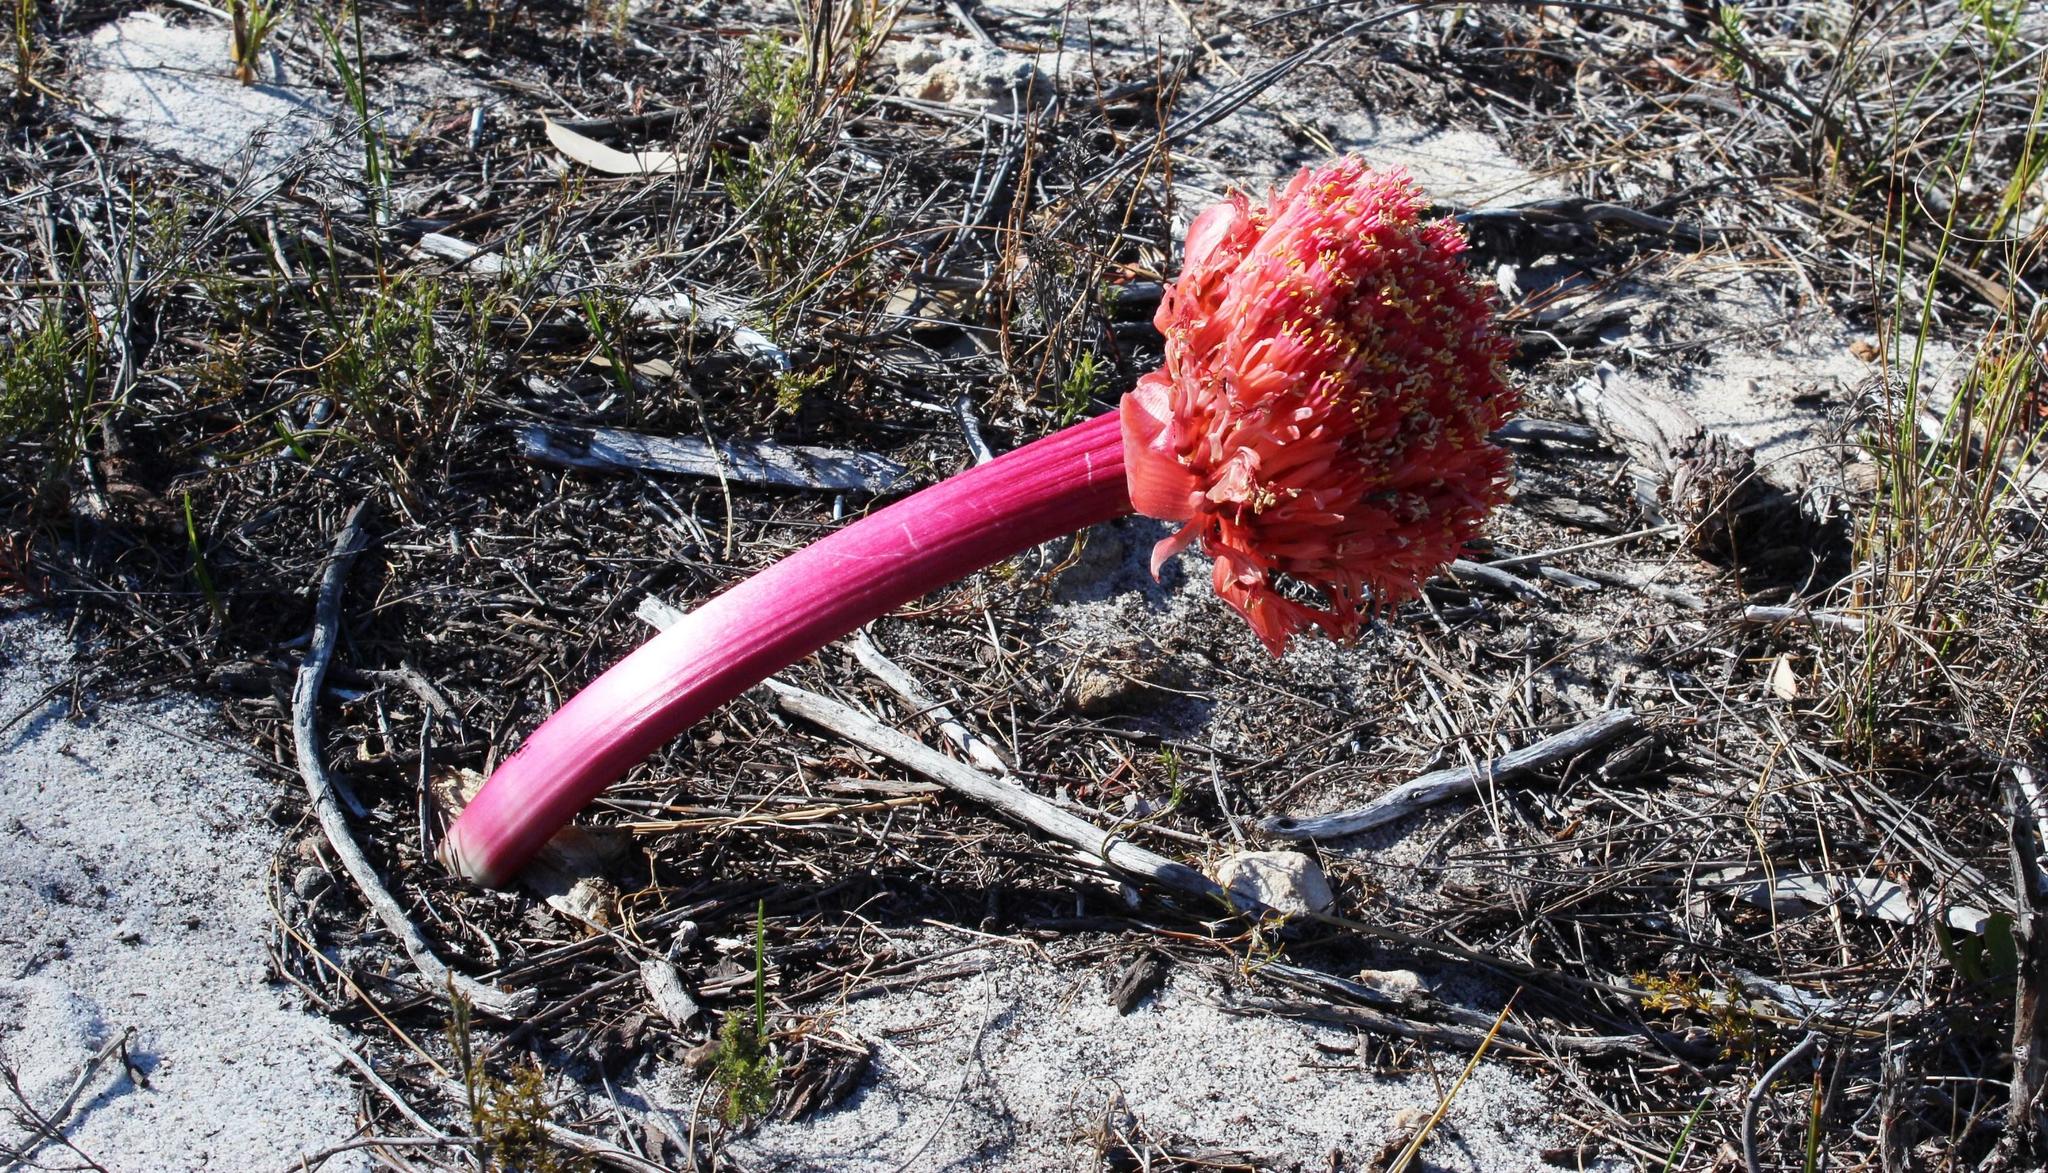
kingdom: Plantae
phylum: Tracheophyta
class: Liliopsida
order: Asparagales
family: Amaryllidaceae
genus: Haemanthus
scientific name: Haemanthus sanguineus
